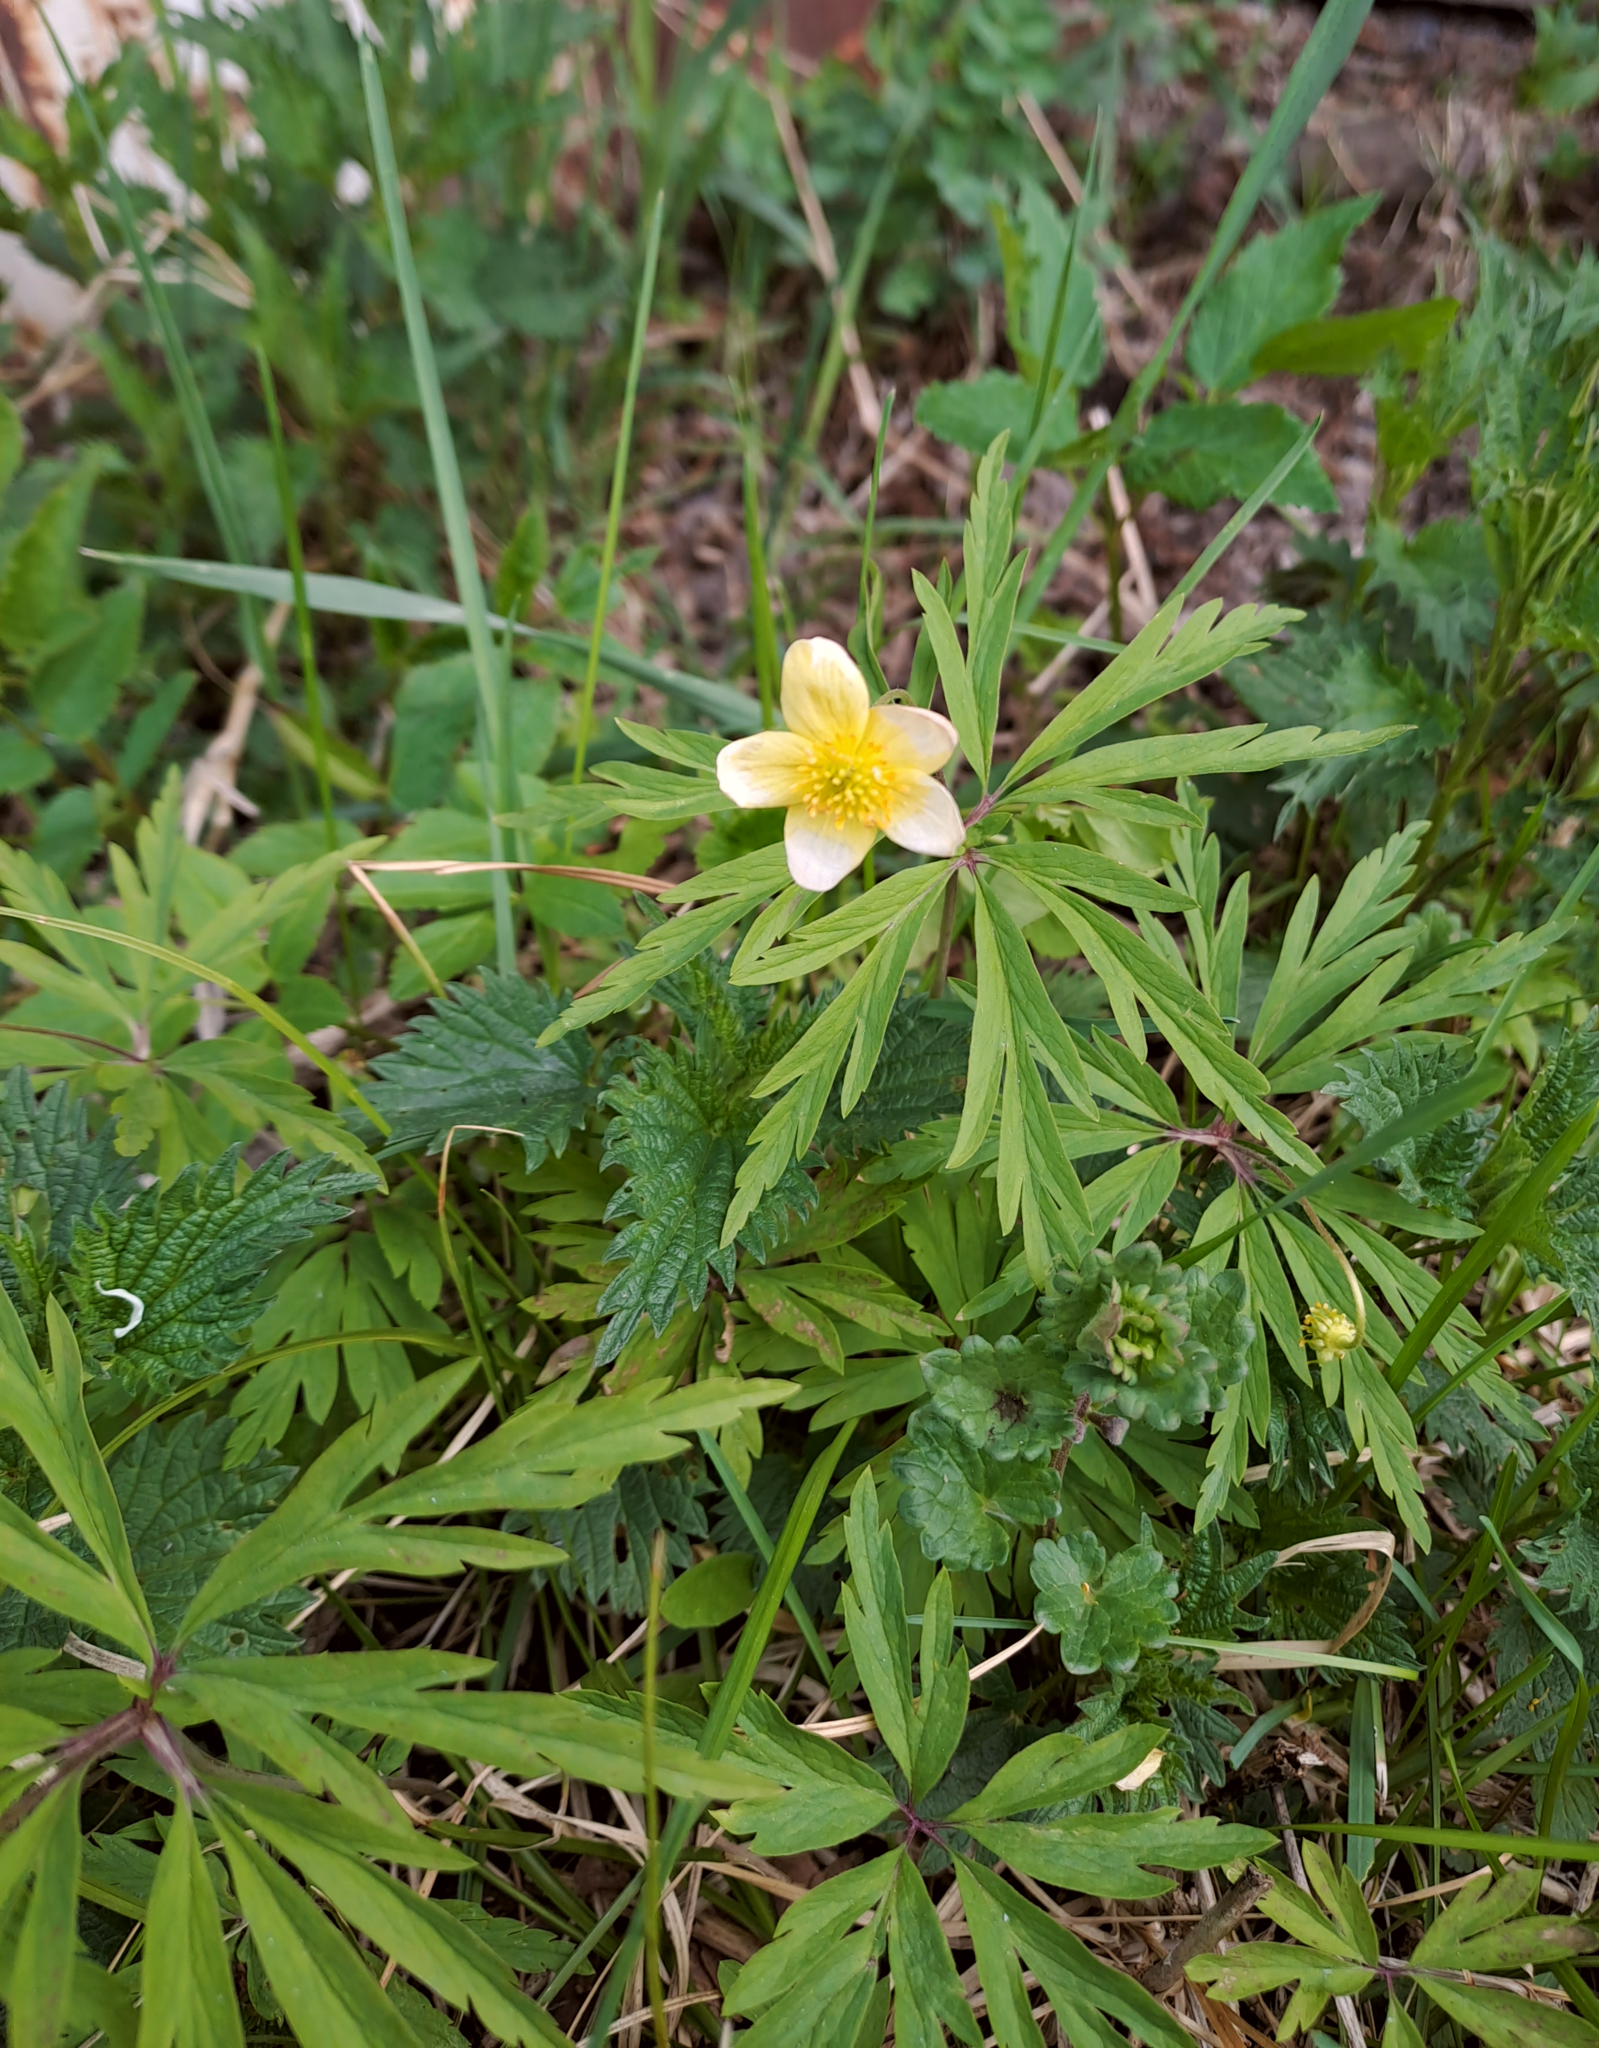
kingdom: Plantae
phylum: Tracheophyta
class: Magnoliopsida
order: Ranunculales
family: Ranunculaceae
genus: Anemone
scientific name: Anemone uralensis
